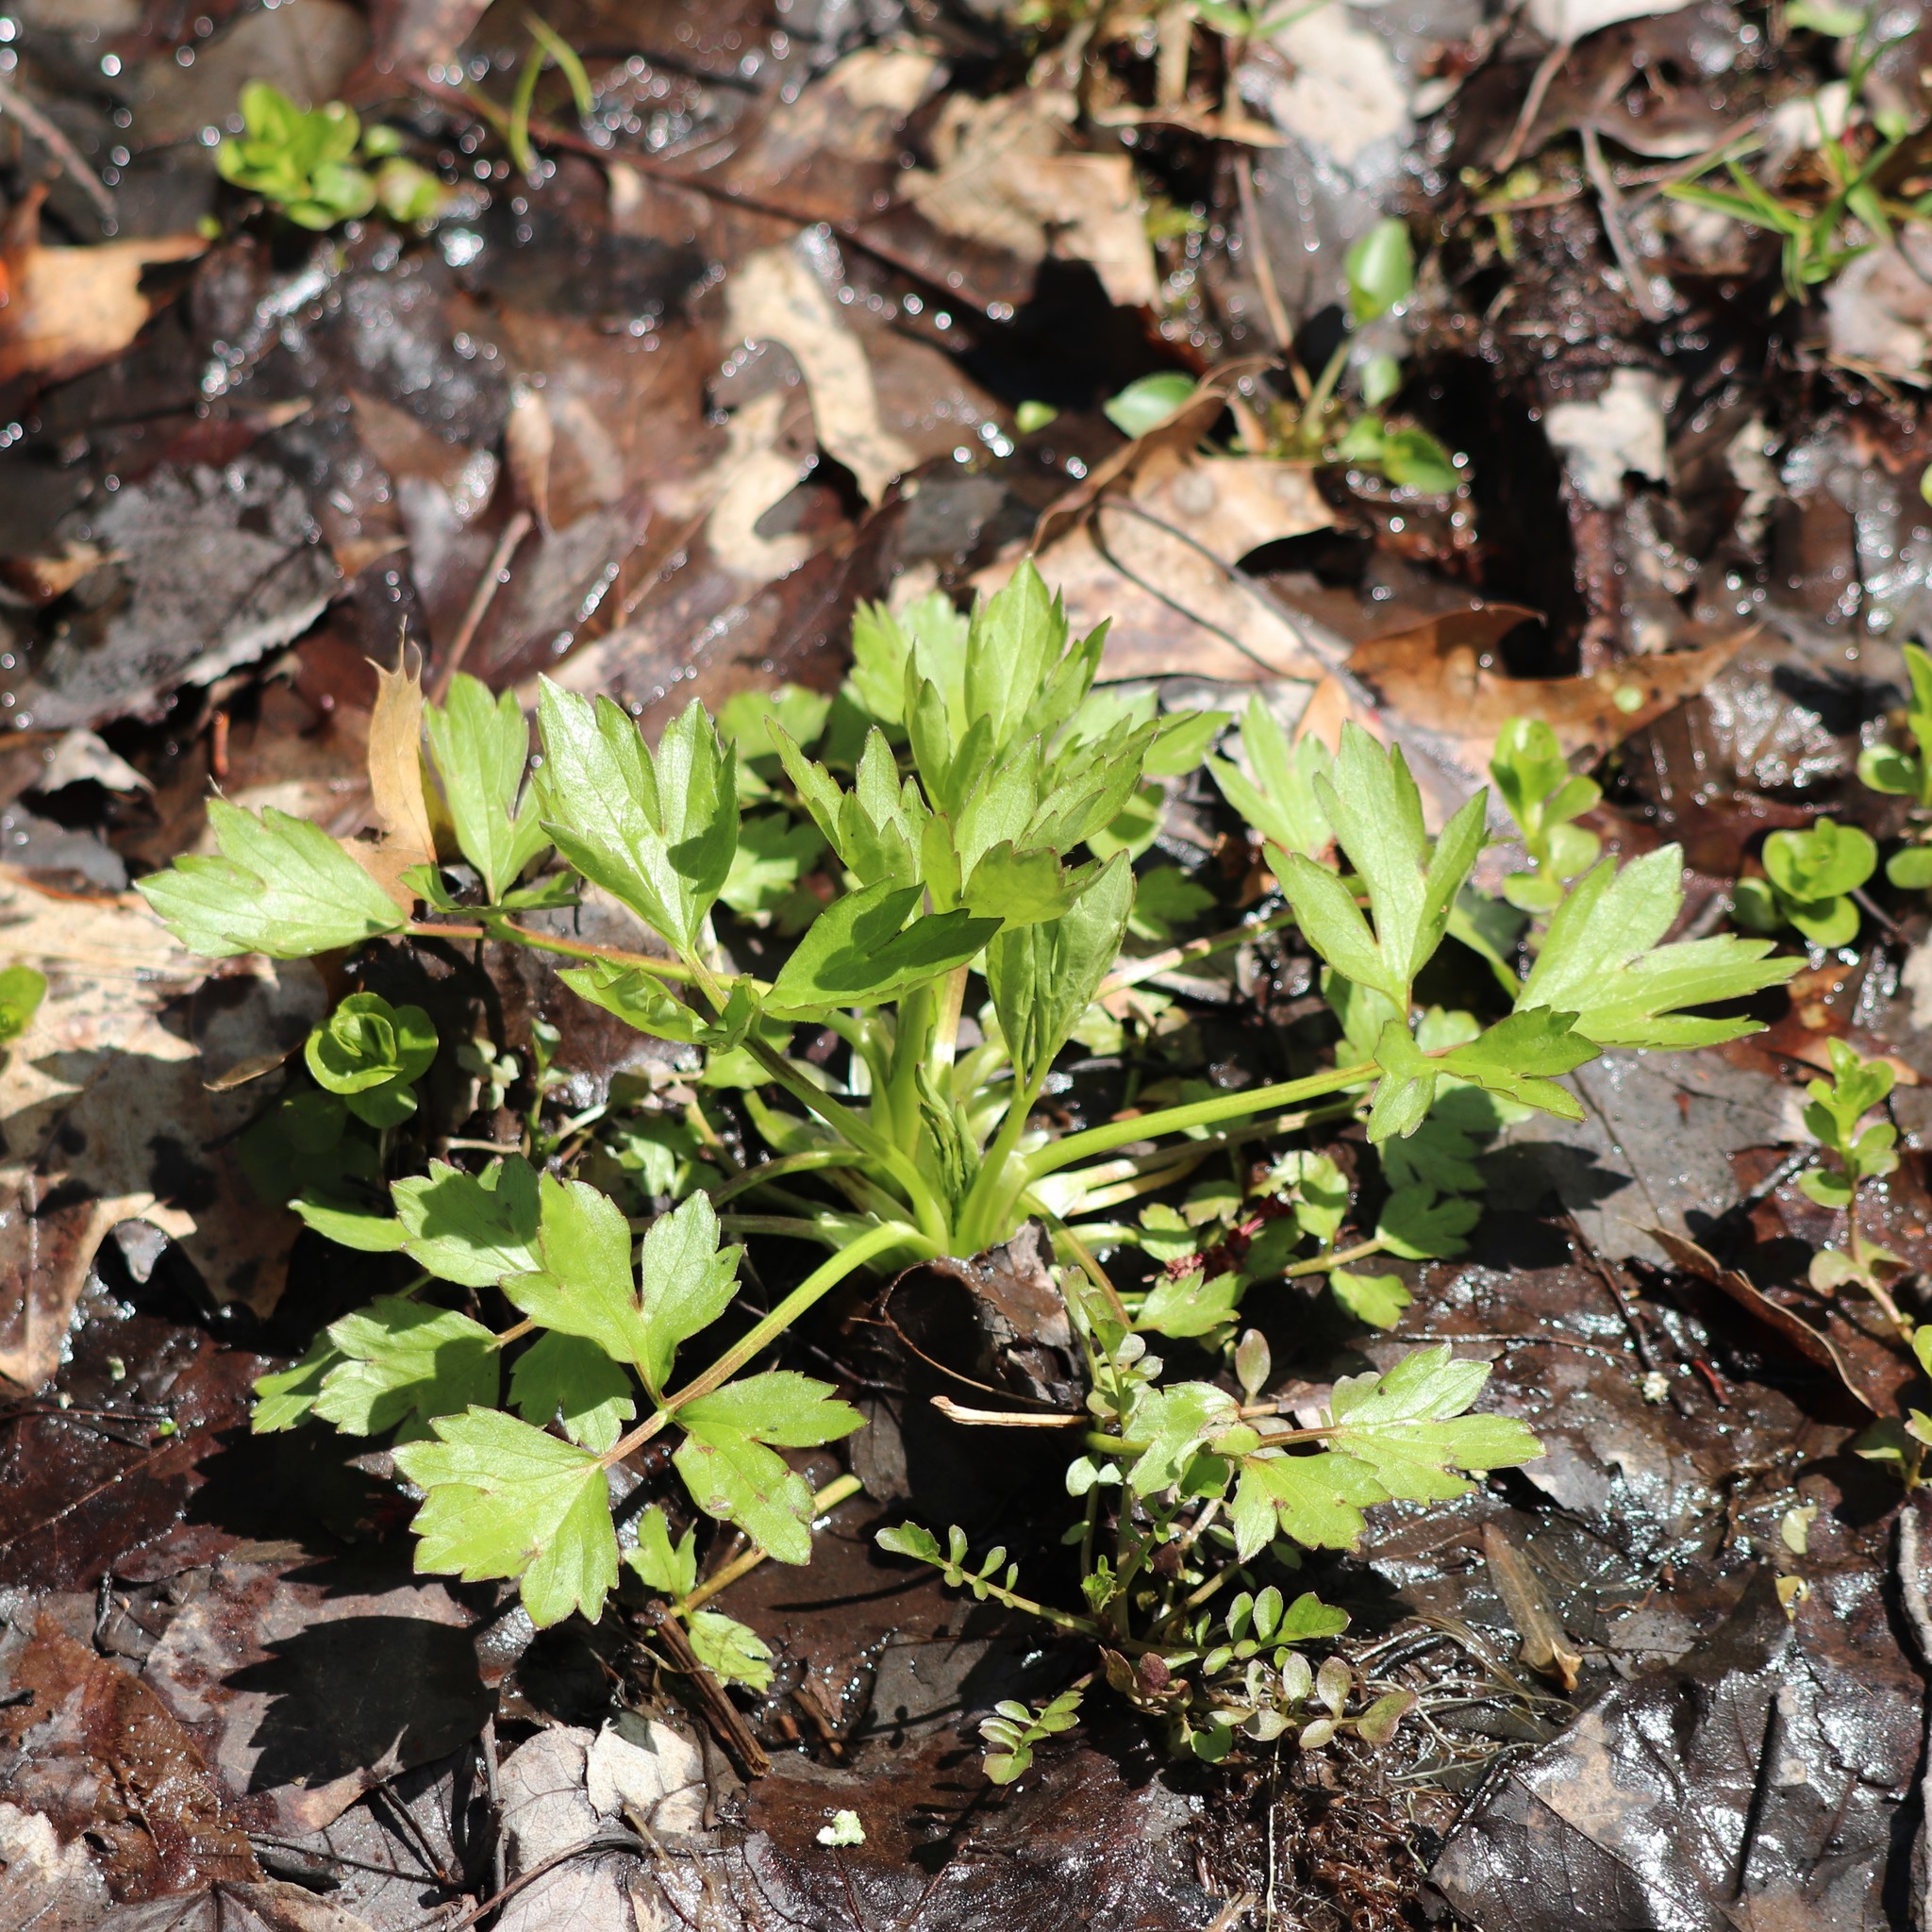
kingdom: Plantae
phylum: Tracheophyta
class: Magnoliopsida
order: Ranunculales
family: Ranunculaceae
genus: Ranunculus
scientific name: Ranunculus hispidus
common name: Bristly buttercup
